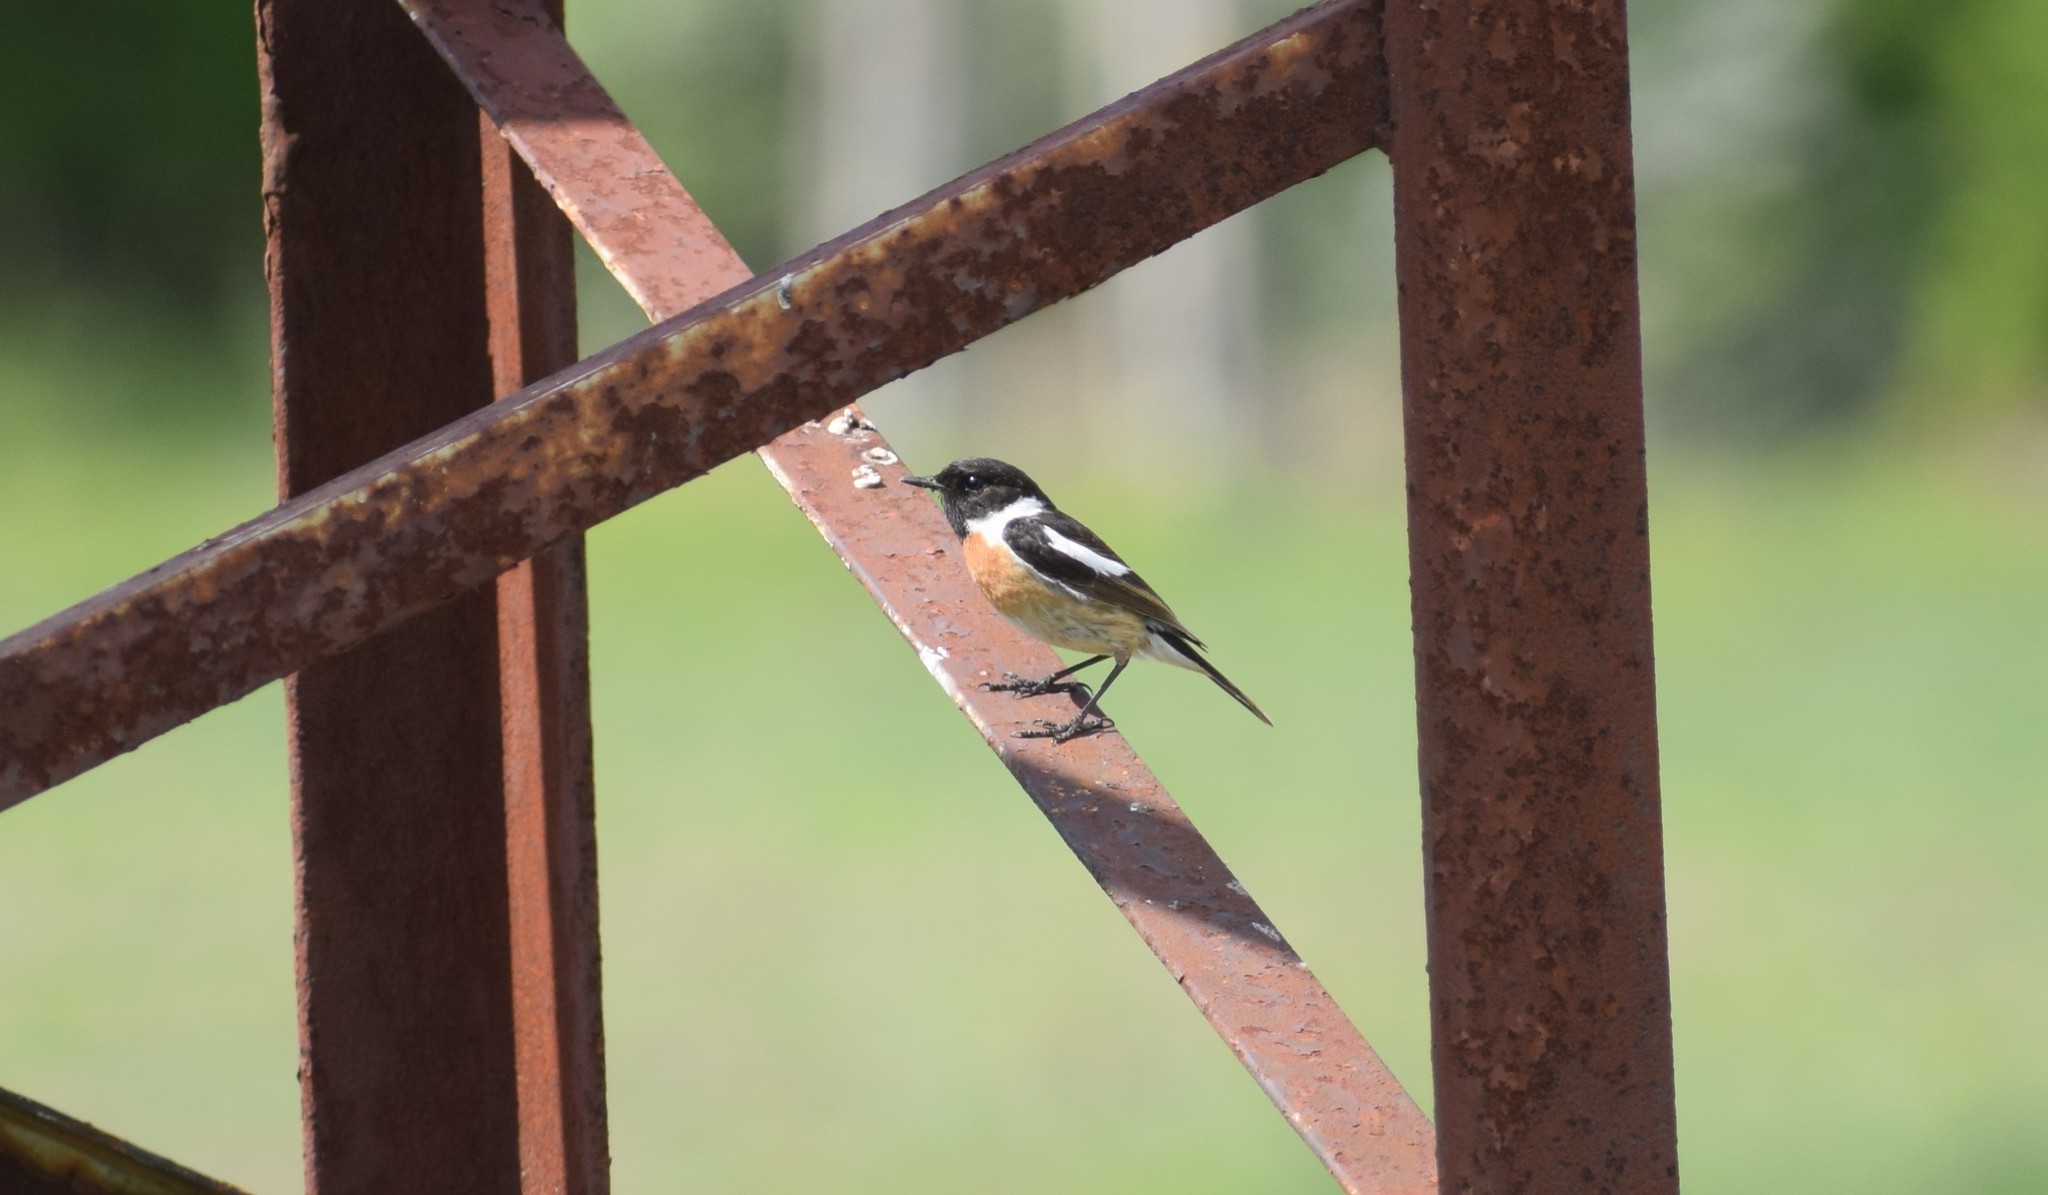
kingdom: Animalia
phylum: Chordata
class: Aves
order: Passeriformes
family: Muscicapidae
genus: Saxicola
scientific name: Saxicola rubicola
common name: European stonechat
